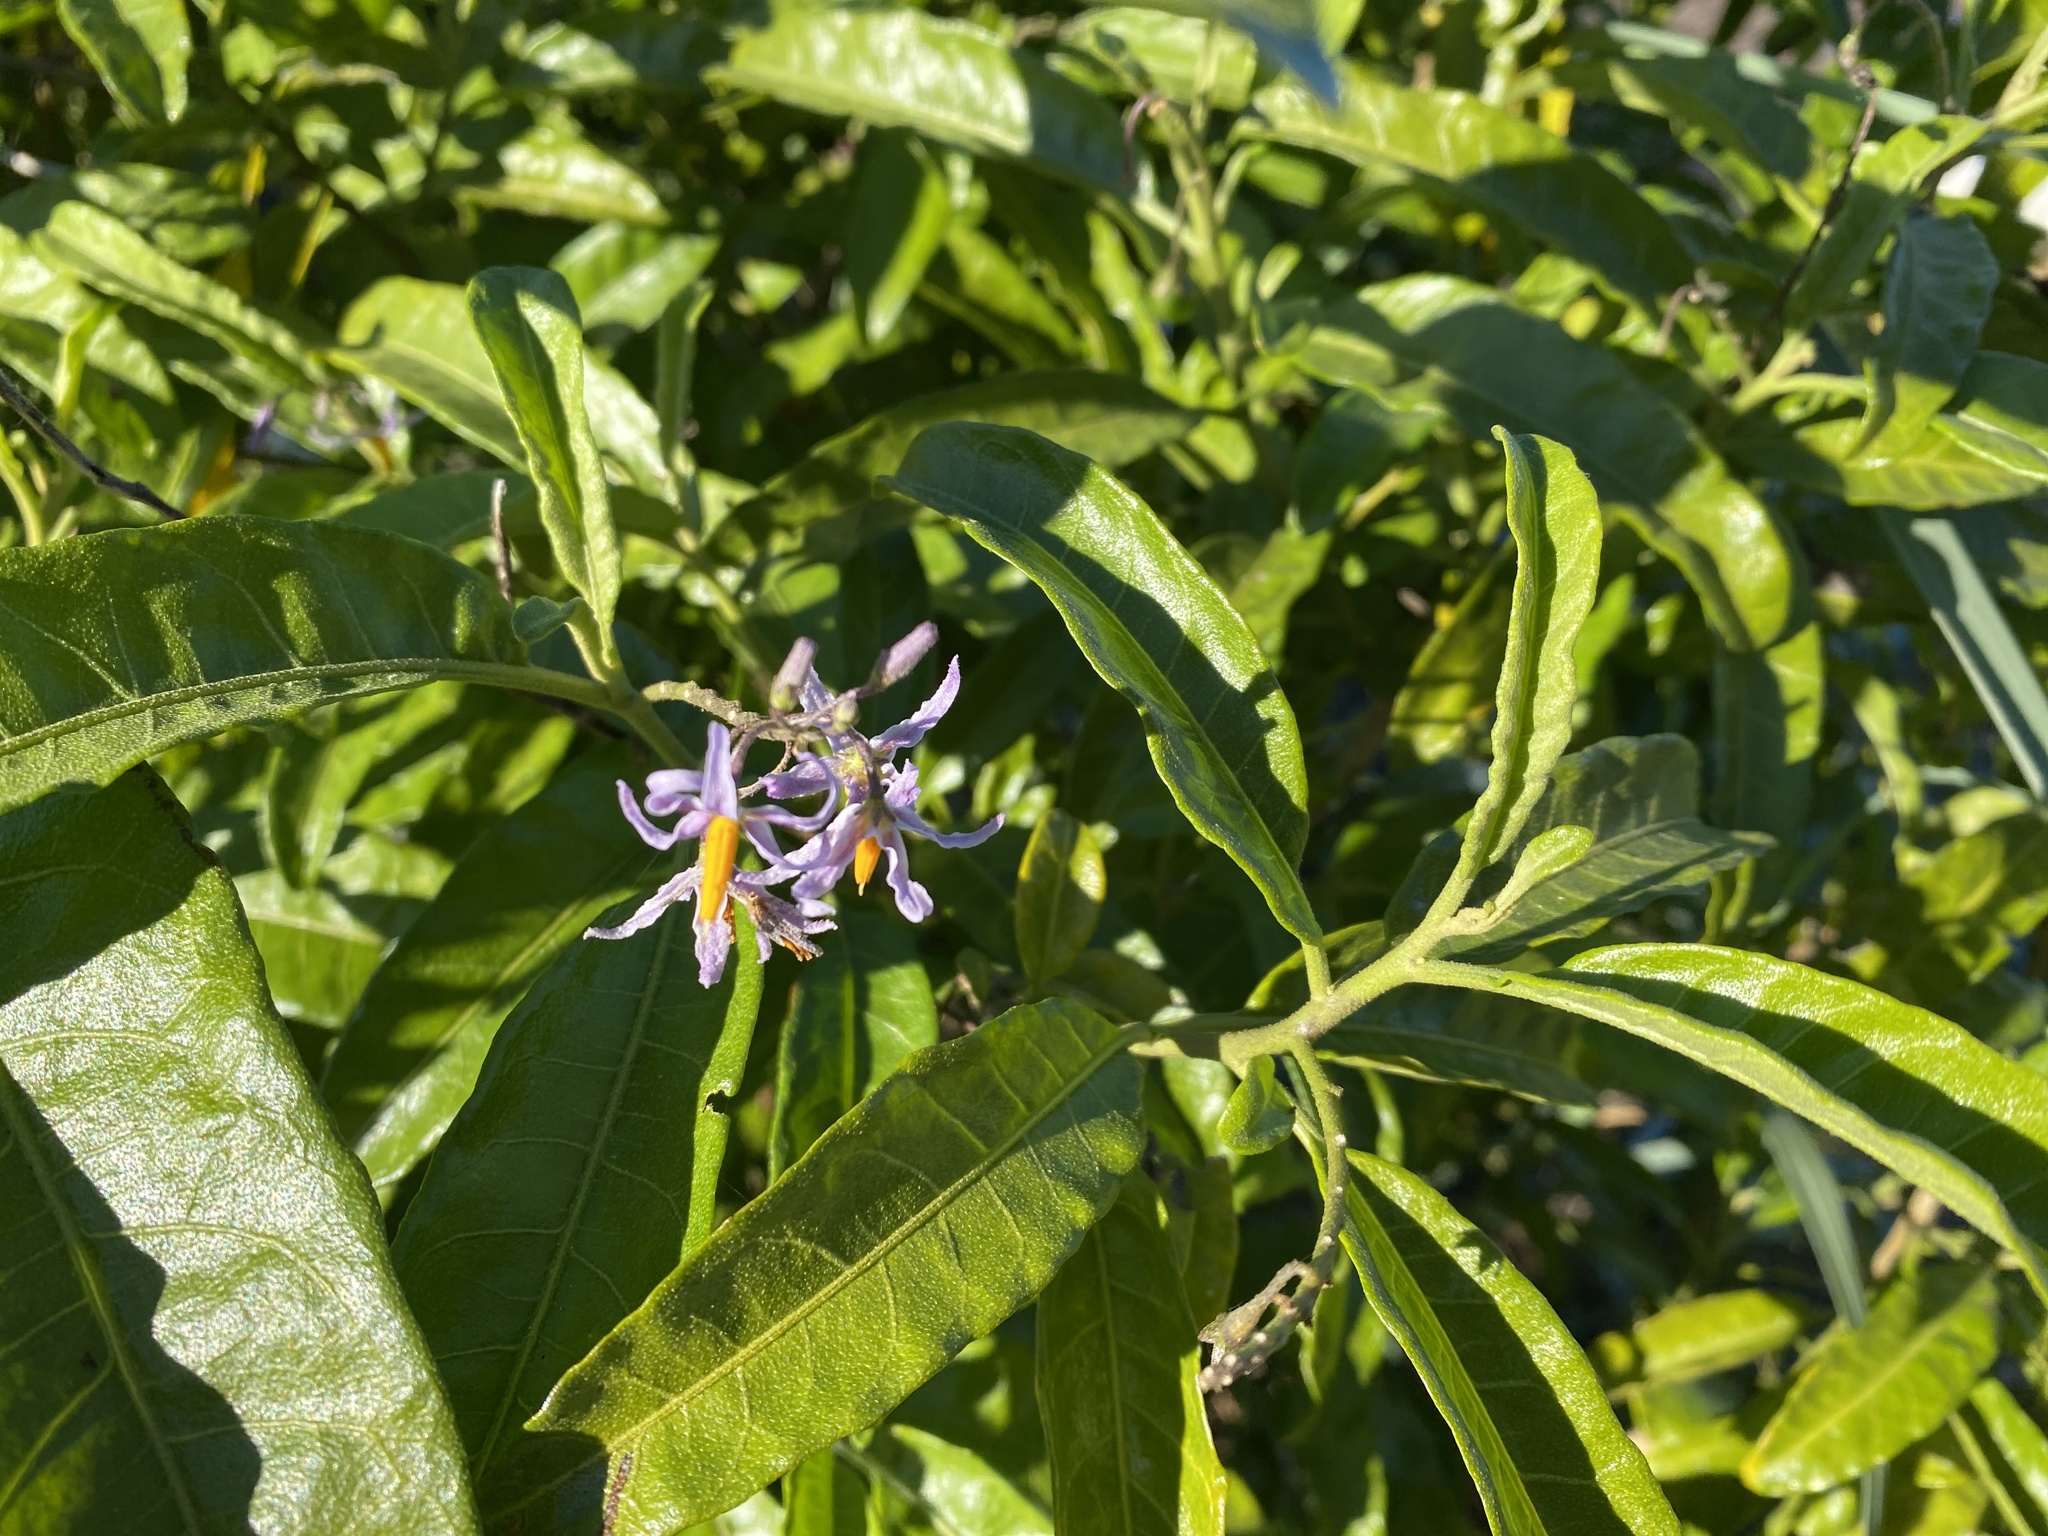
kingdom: Plantae
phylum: Tracheophyta
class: Magnoliopsida
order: Solanales
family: Solanaceae
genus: Solanum
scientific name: Solanum bahamense
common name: Canker-berry
